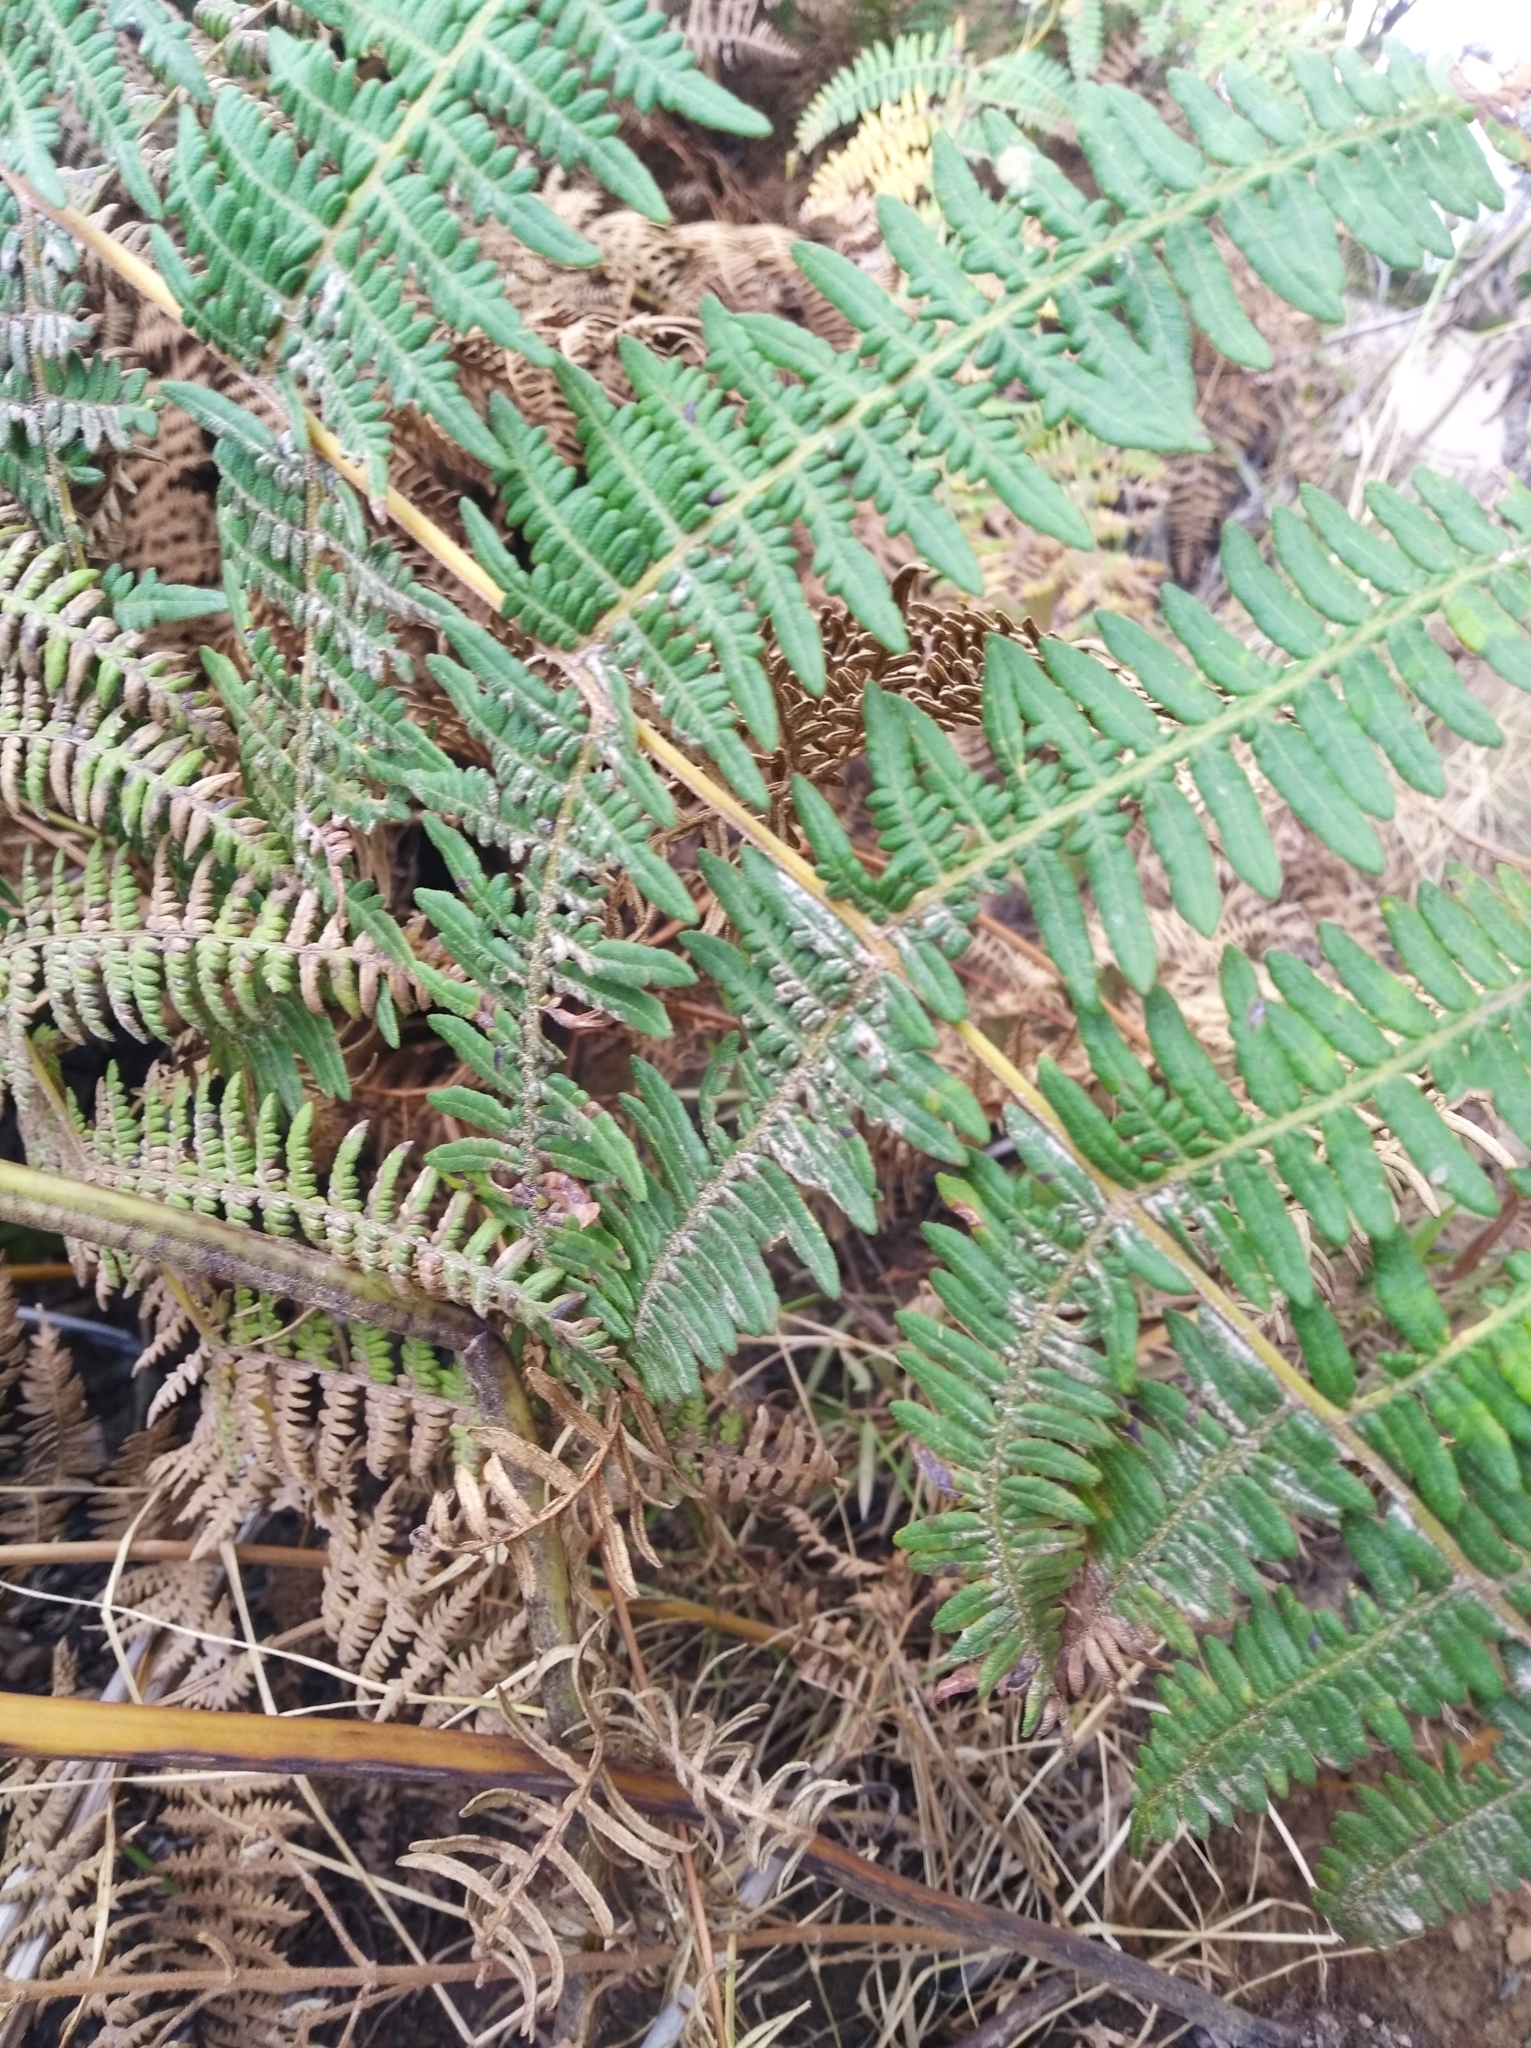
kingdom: Plantae
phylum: Tracheophyta
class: Polypodiopsida
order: Polypodiales
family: Dennstaedtiaceae
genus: Pteridium
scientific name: Pteridium esculentum
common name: Bracken fern
